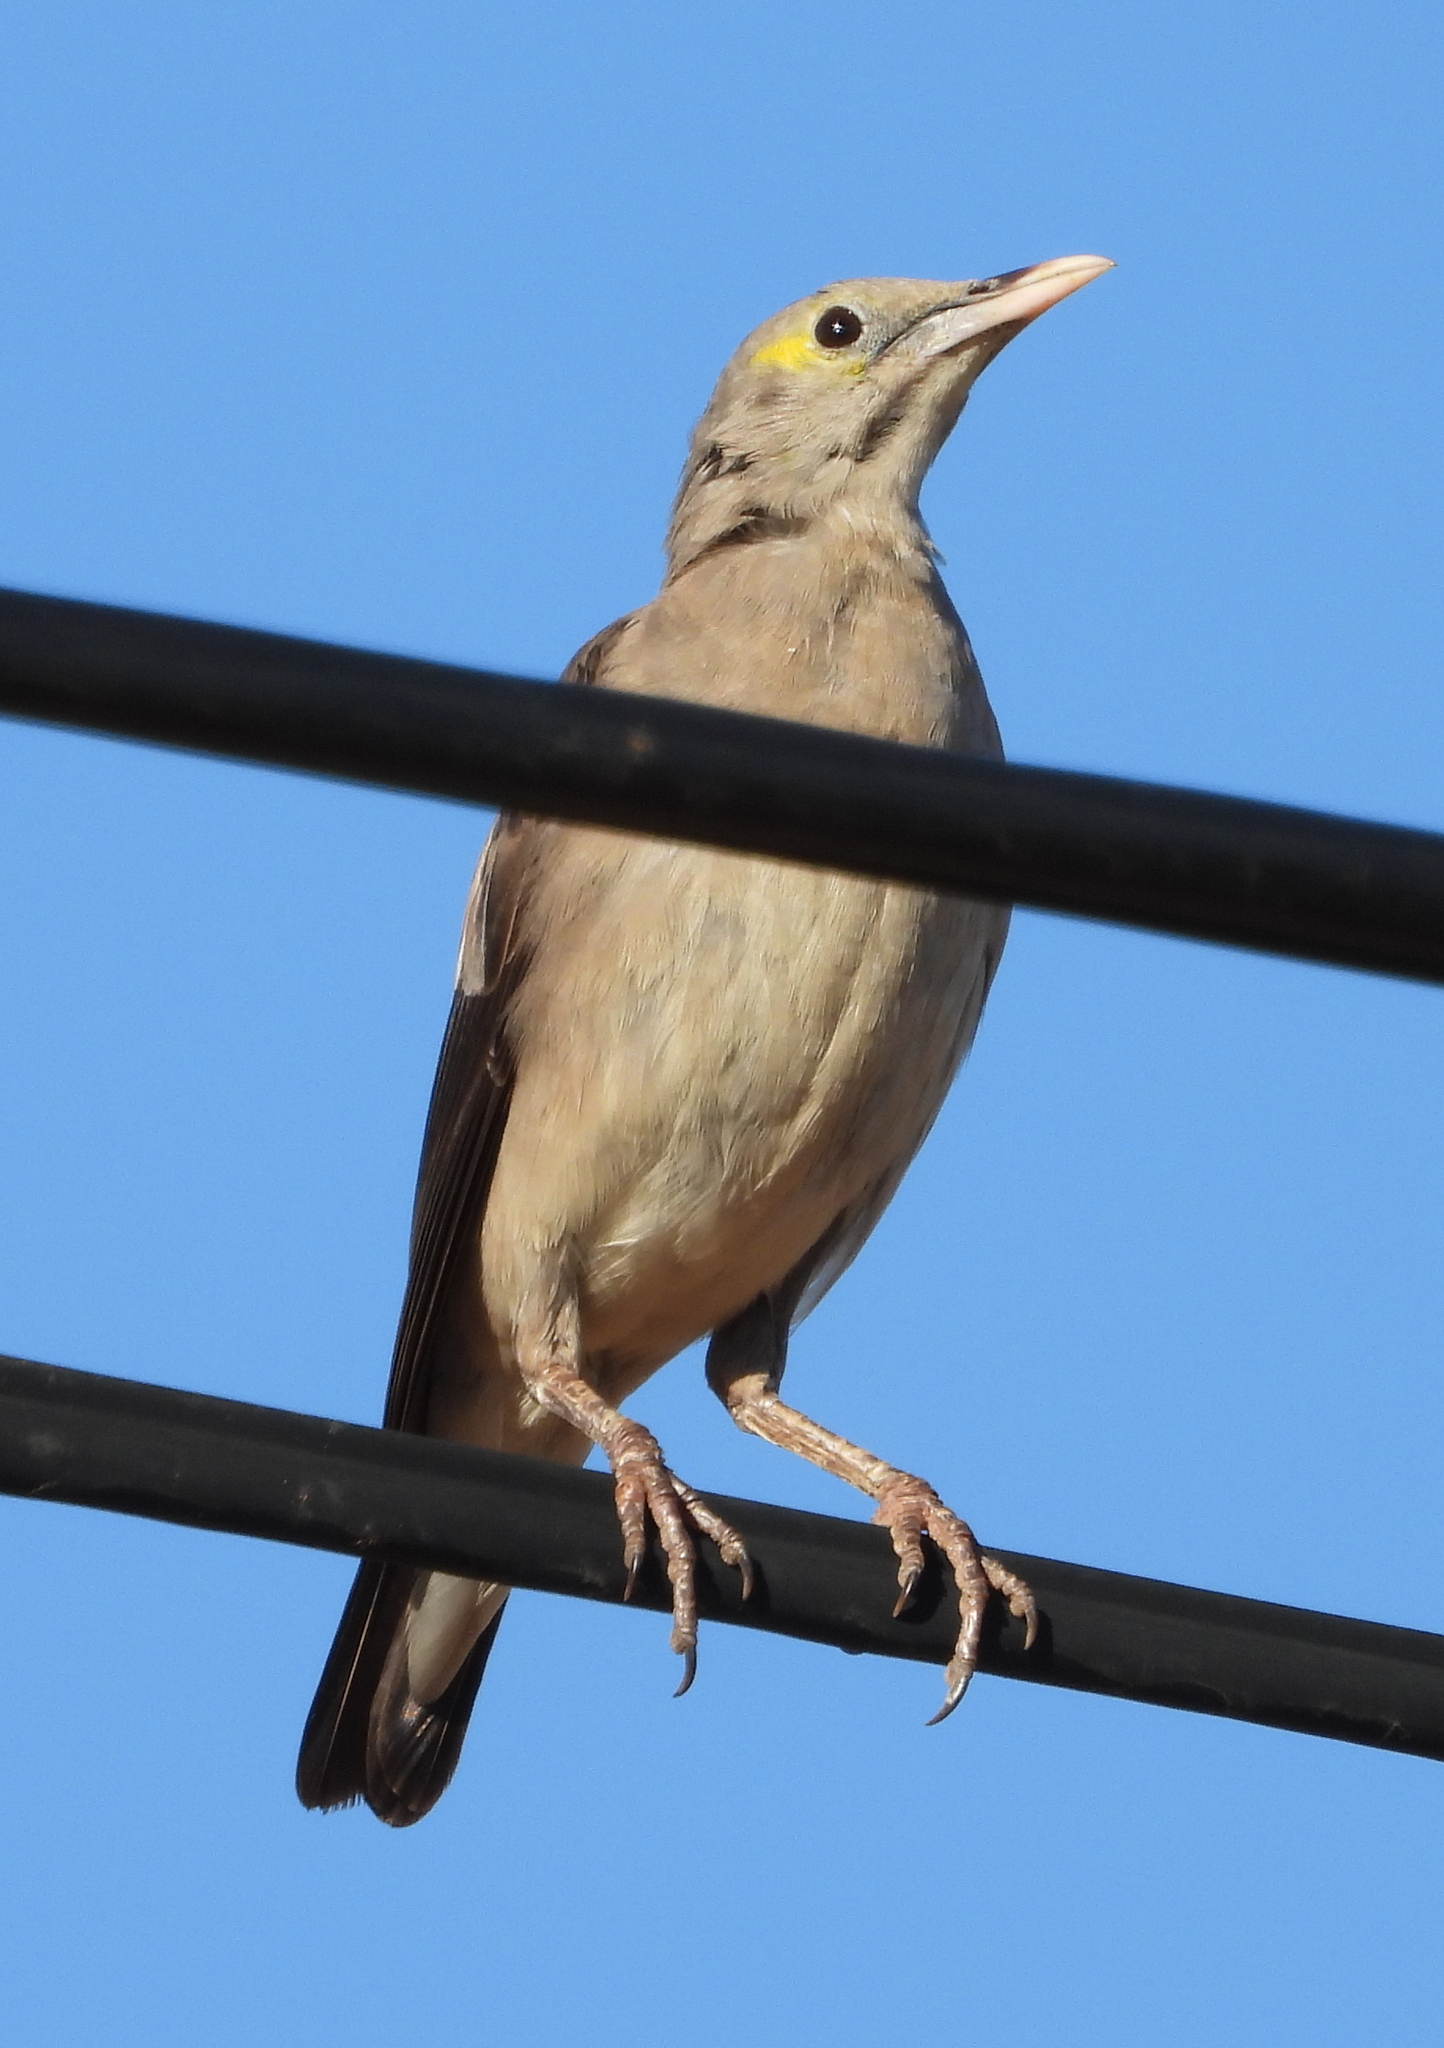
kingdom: Animalia
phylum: Chordata
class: Aves
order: Passeriformes
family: Sturnidae
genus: Creatophora
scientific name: Creatophora cinerea
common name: Wattled starling
